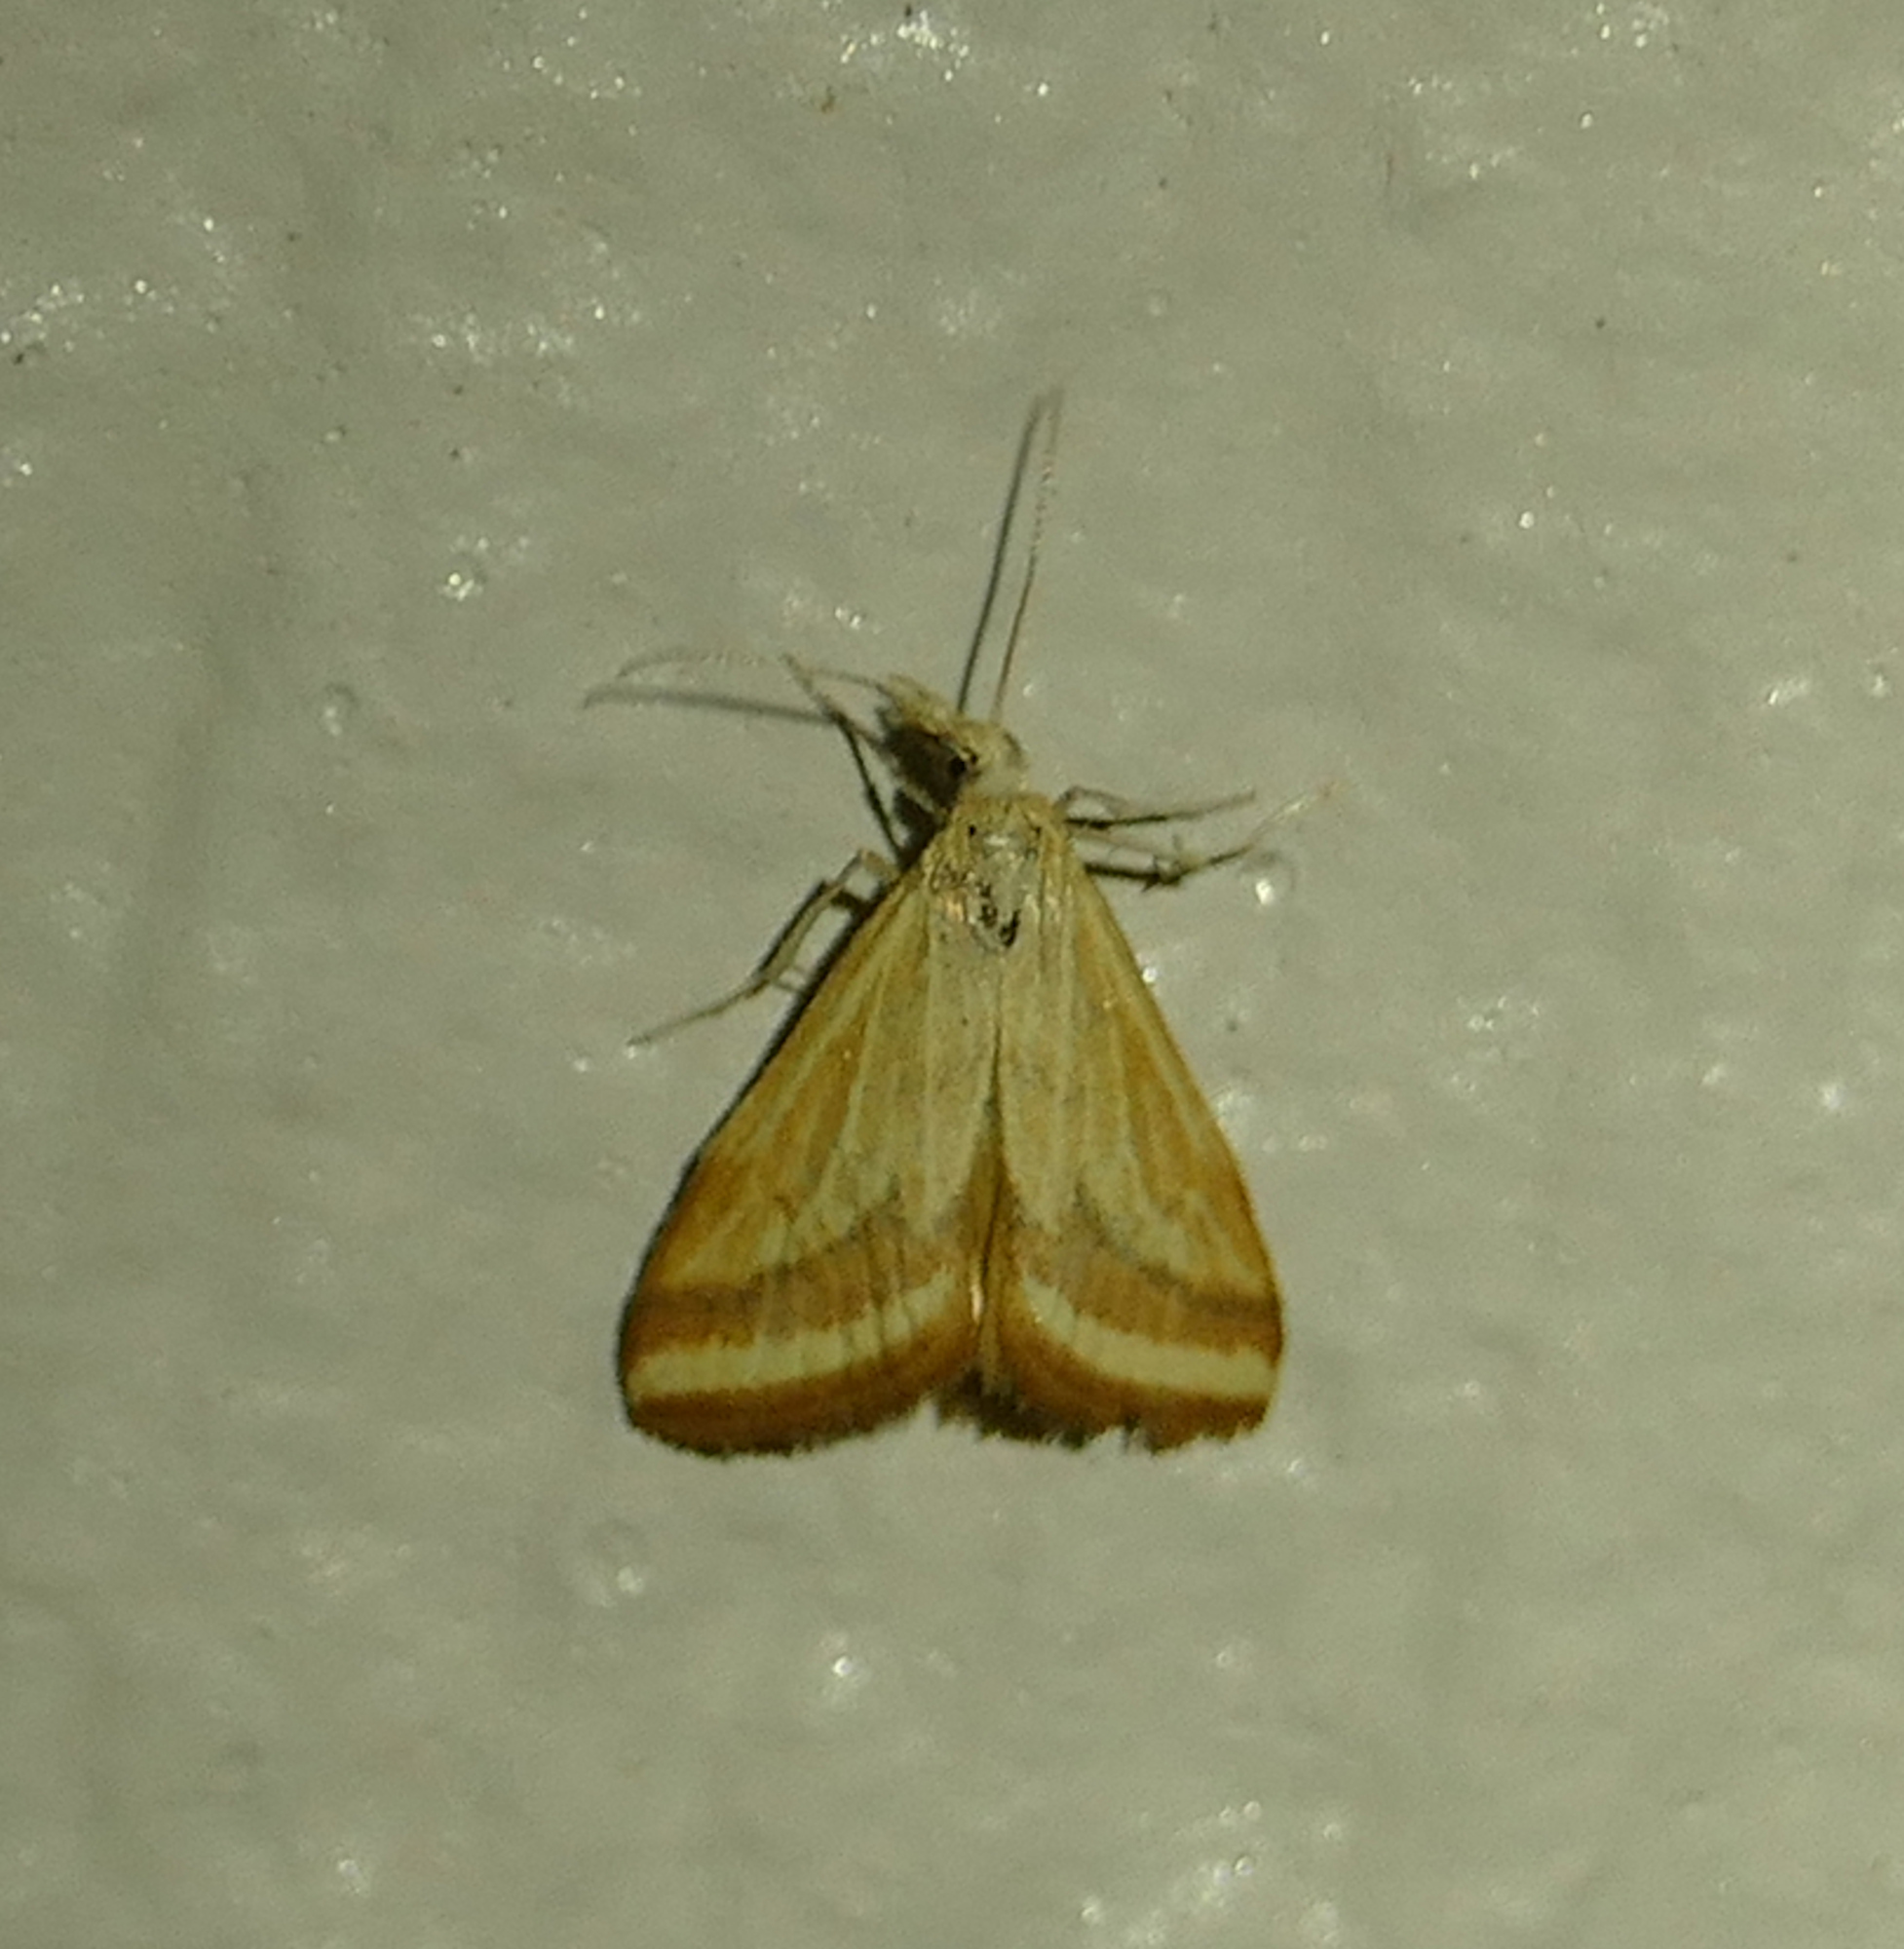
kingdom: Animalia
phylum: Arthropoda
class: Insecta
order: Lepidoptera
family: Crambidae
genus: Microtheoris
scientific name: Microtheoris ophionalis
